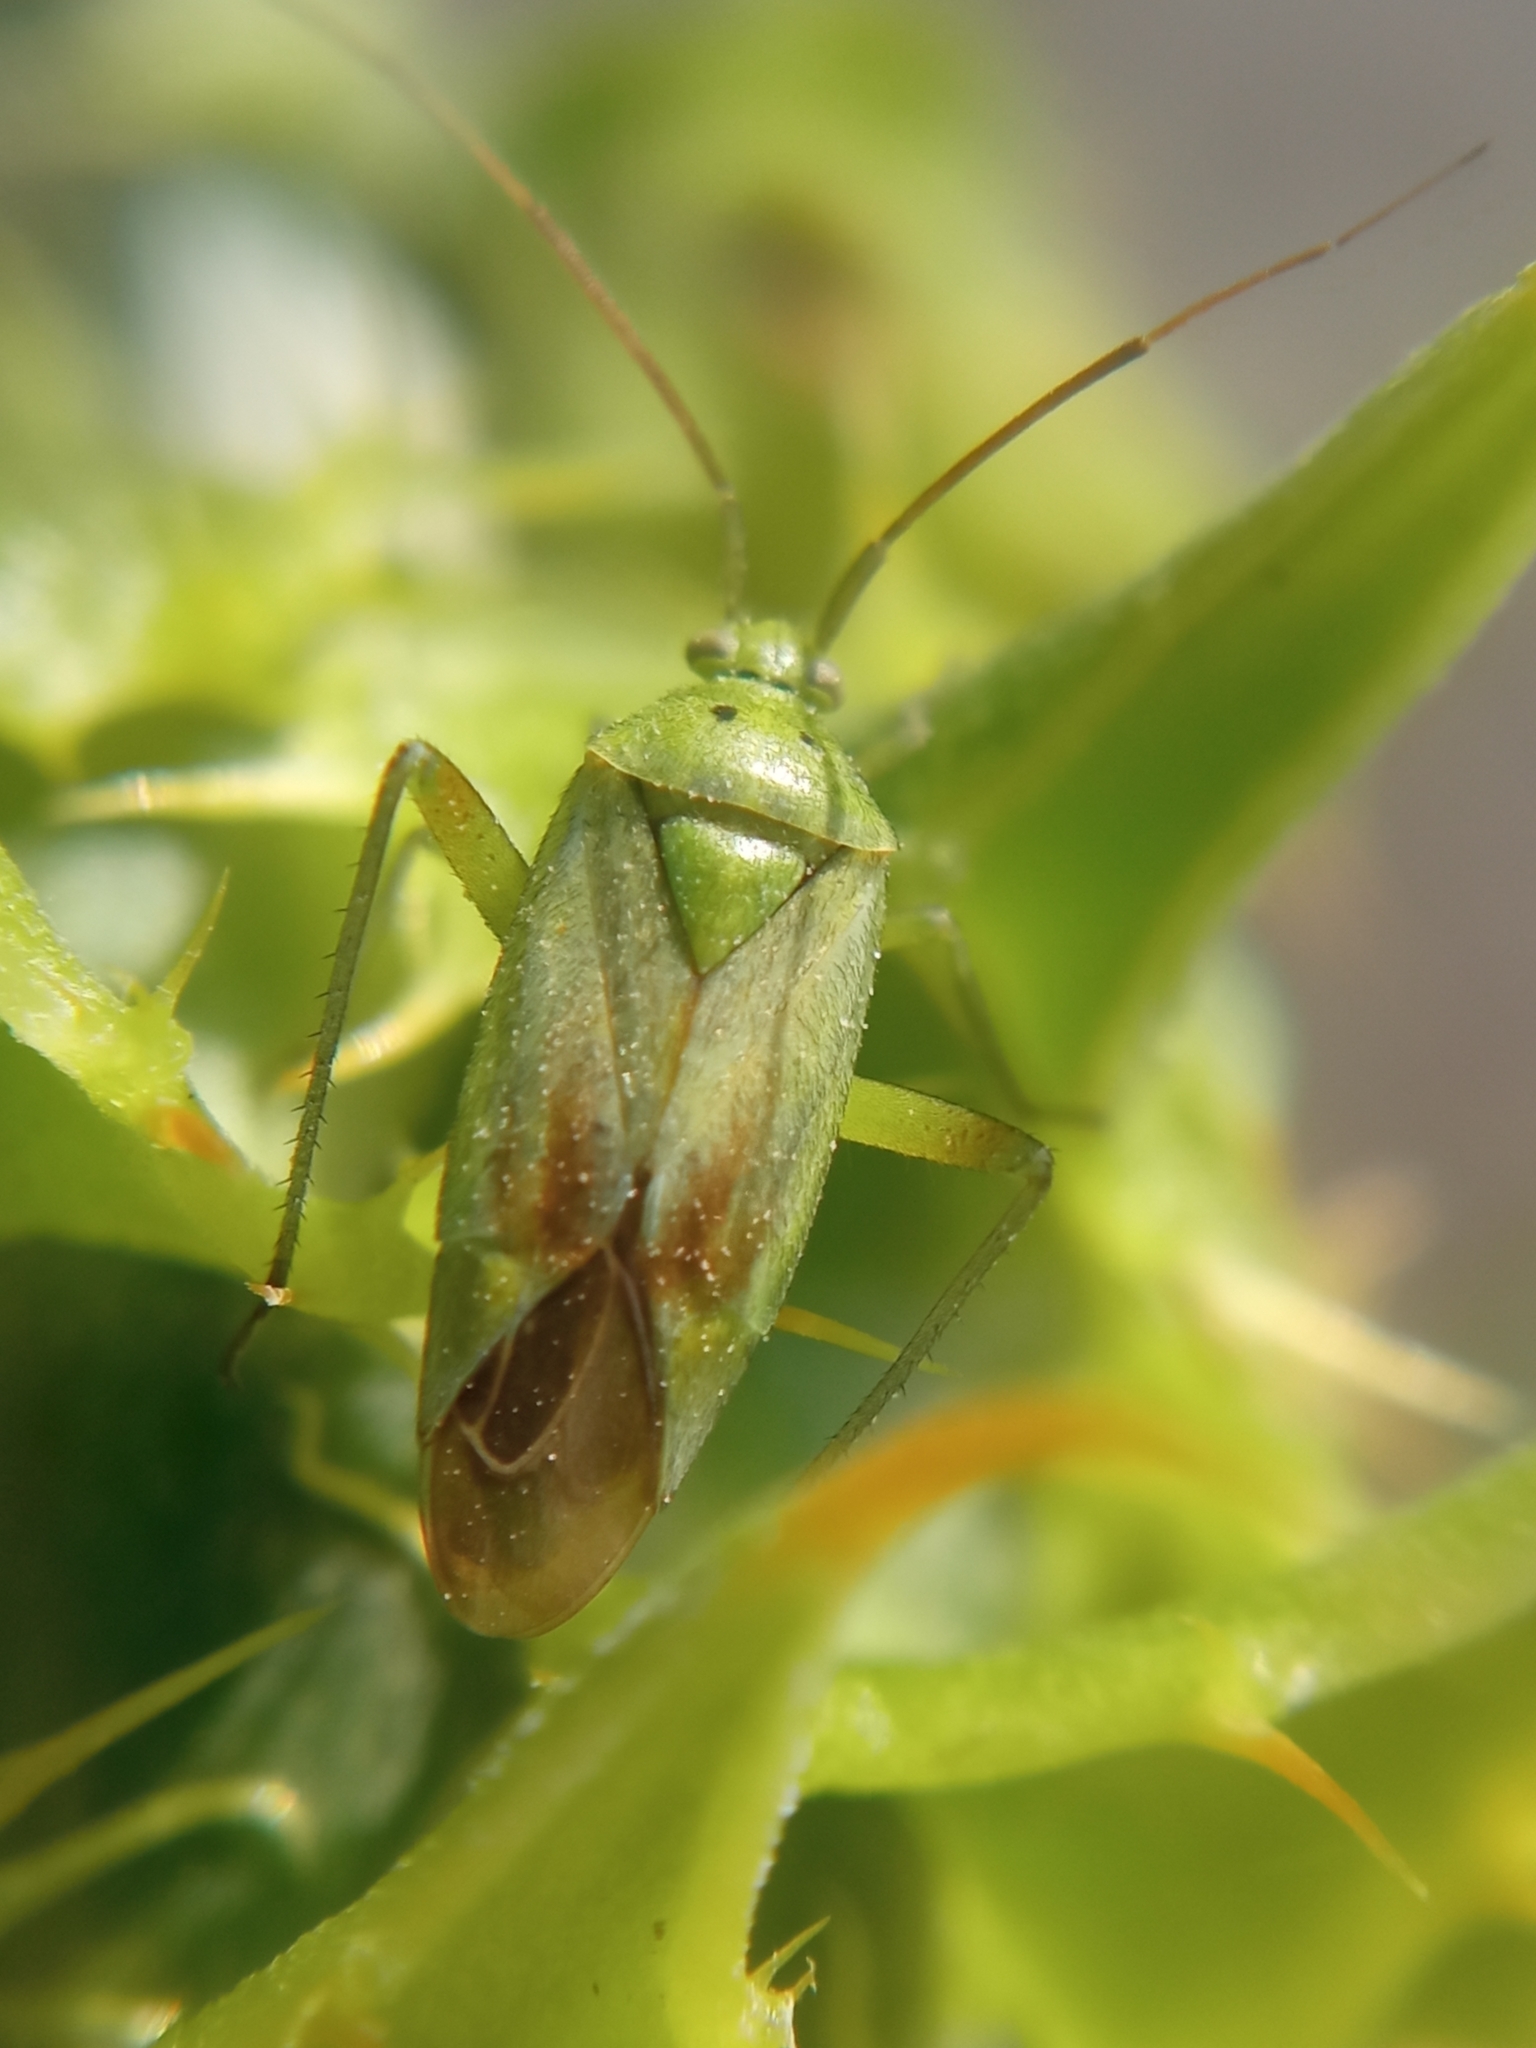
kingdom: Animalia
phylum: Arthropoda
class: Insecta
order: Hemiptera
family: Miridae
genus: Closterotomus
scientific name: Closterotomus norvegicus
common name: Plant bug
